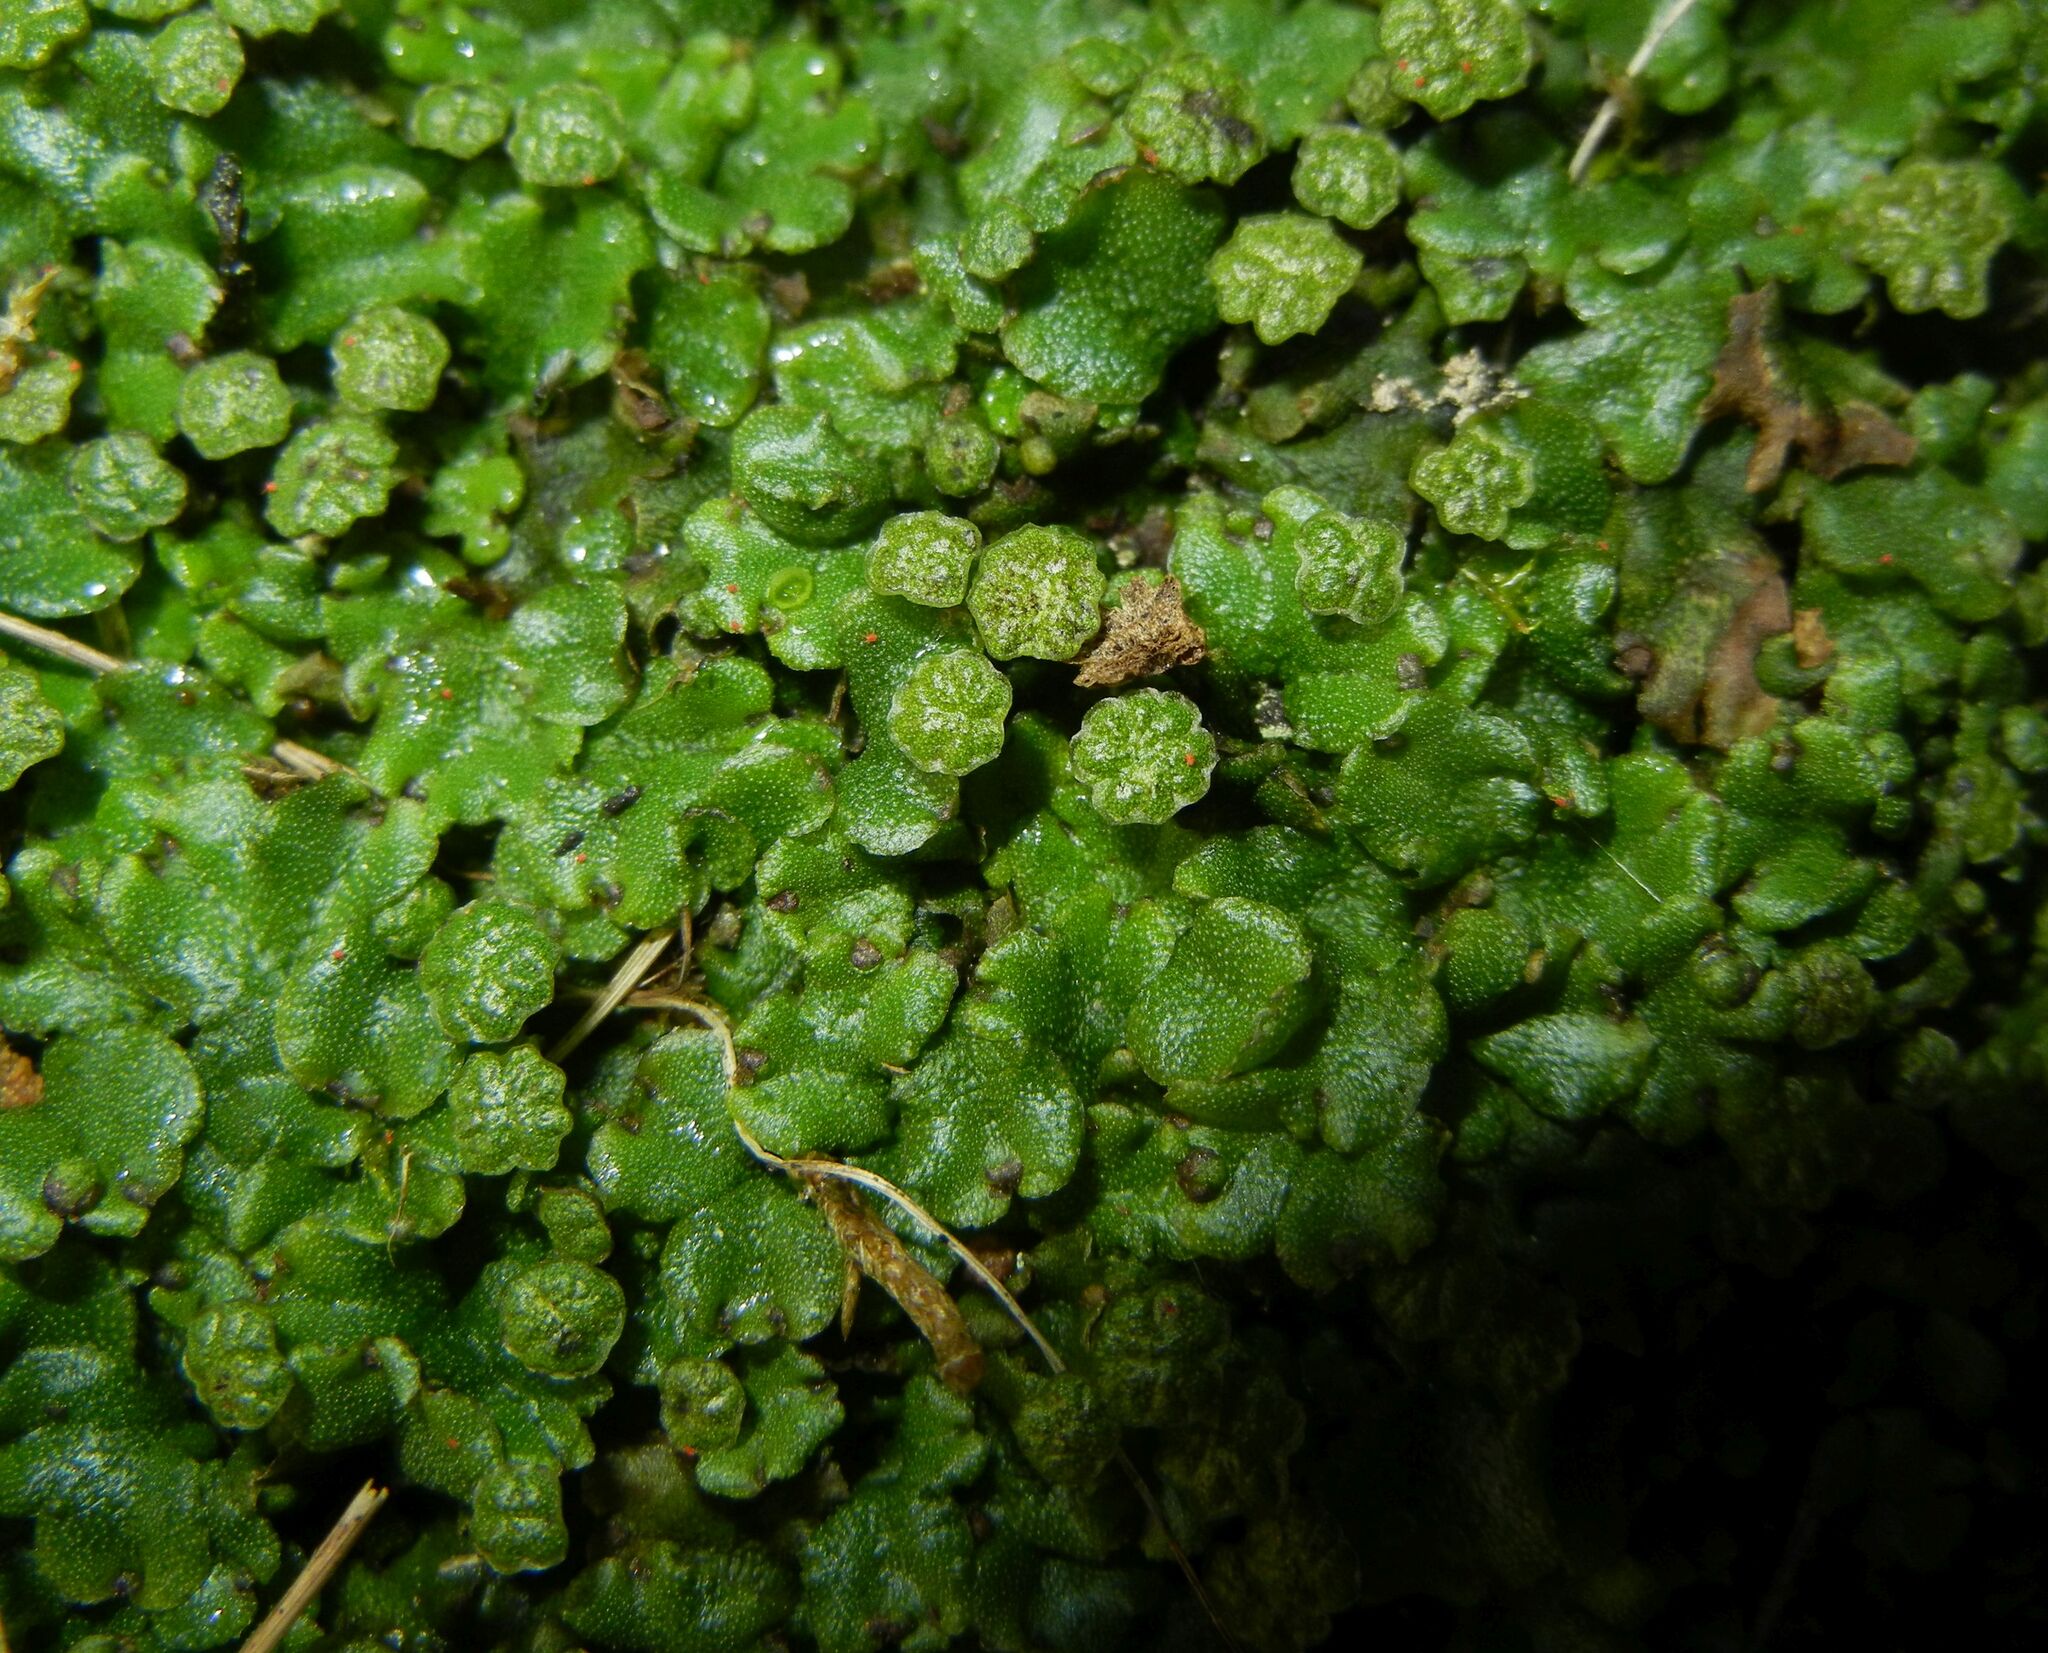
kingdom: Plantae
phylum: Marchantiophyta
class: Marchantiopsida
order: Marchantiales
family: Marchantiaceae
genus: Marchantia
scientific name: Marchantia polymorpha
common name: Common liverwort
